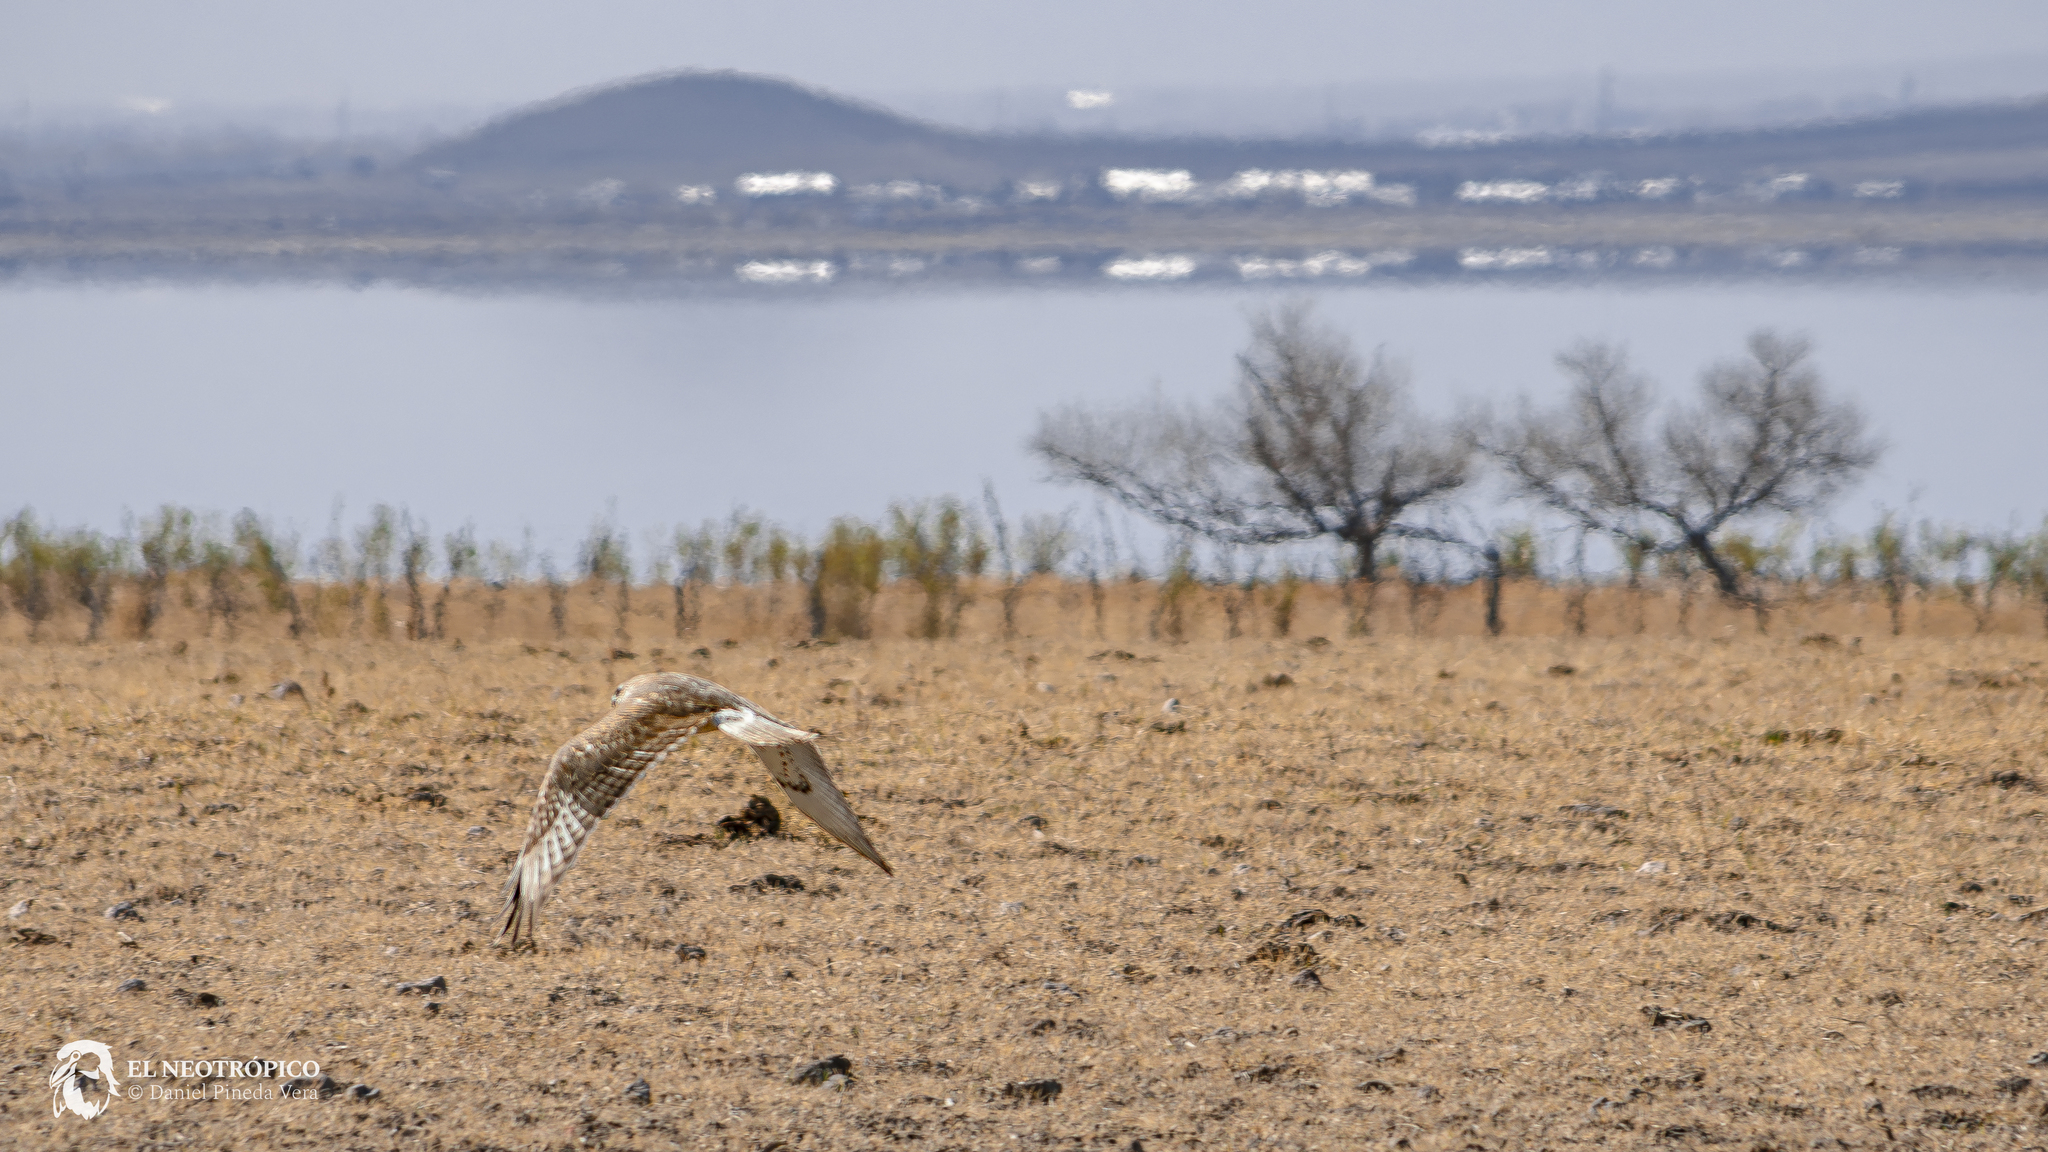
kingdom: Animalia
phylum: Chordata
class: Aves
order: Accipitriformes
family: Accipitridae
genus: Buteo
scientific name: Buteo regalis
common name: Ferruginous hawk
